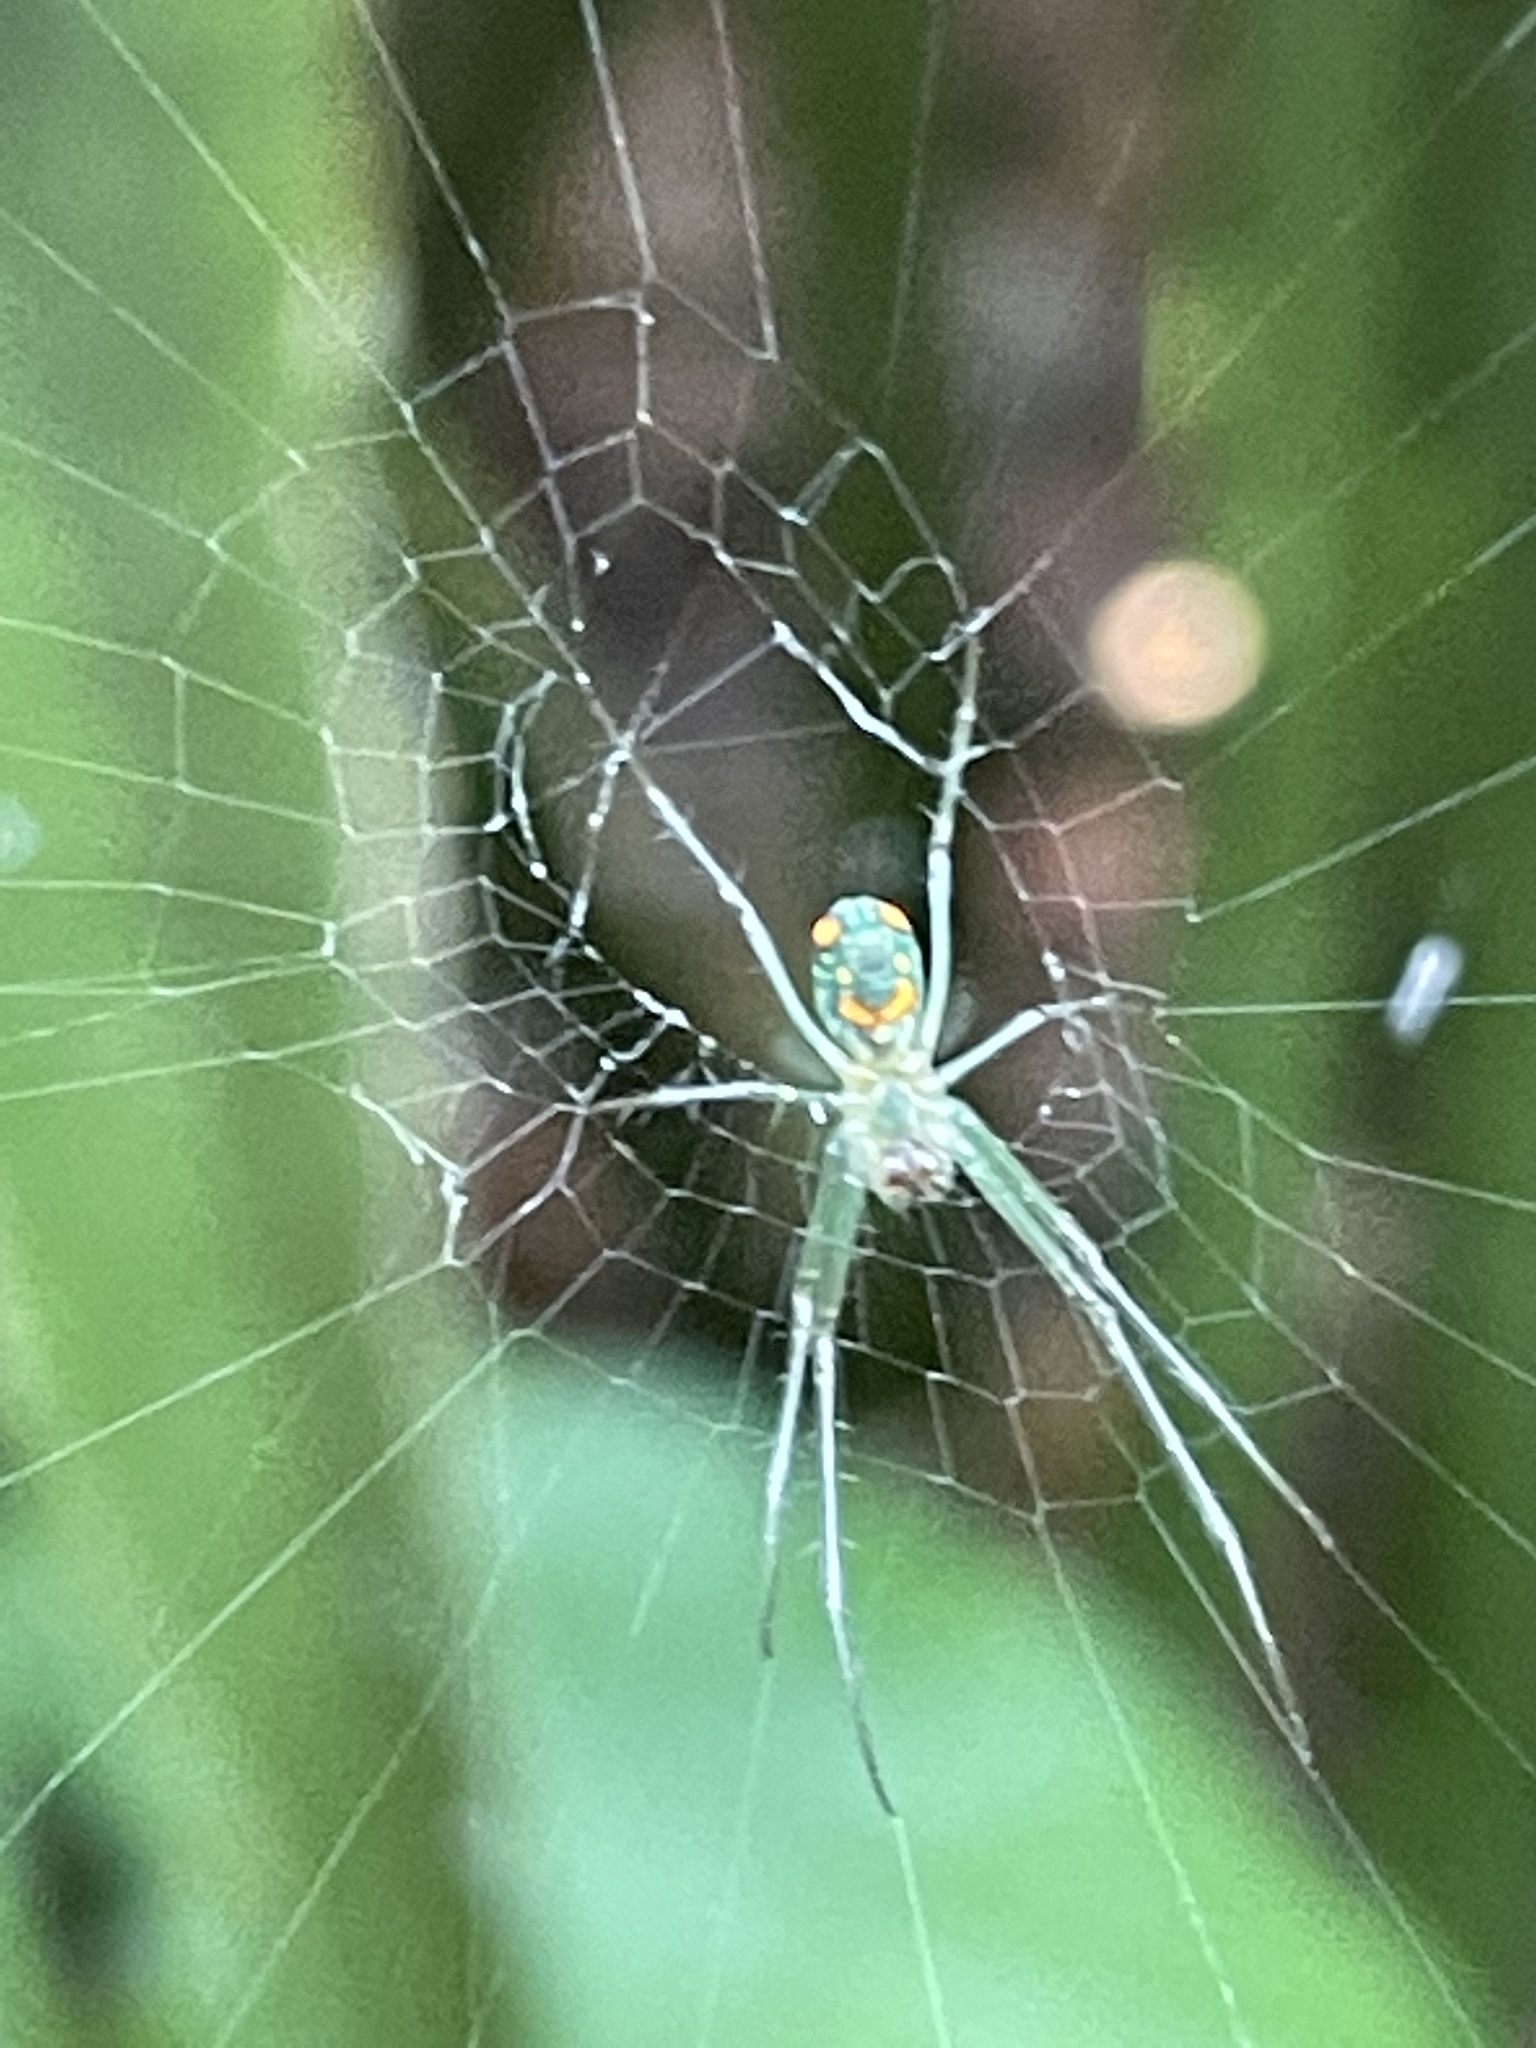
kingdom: Animalia
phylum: Arthropoda
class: Arachnida
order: Araneae
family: Tetragnathidae
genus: Leucauge
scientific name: Leucauge argyrobapta
